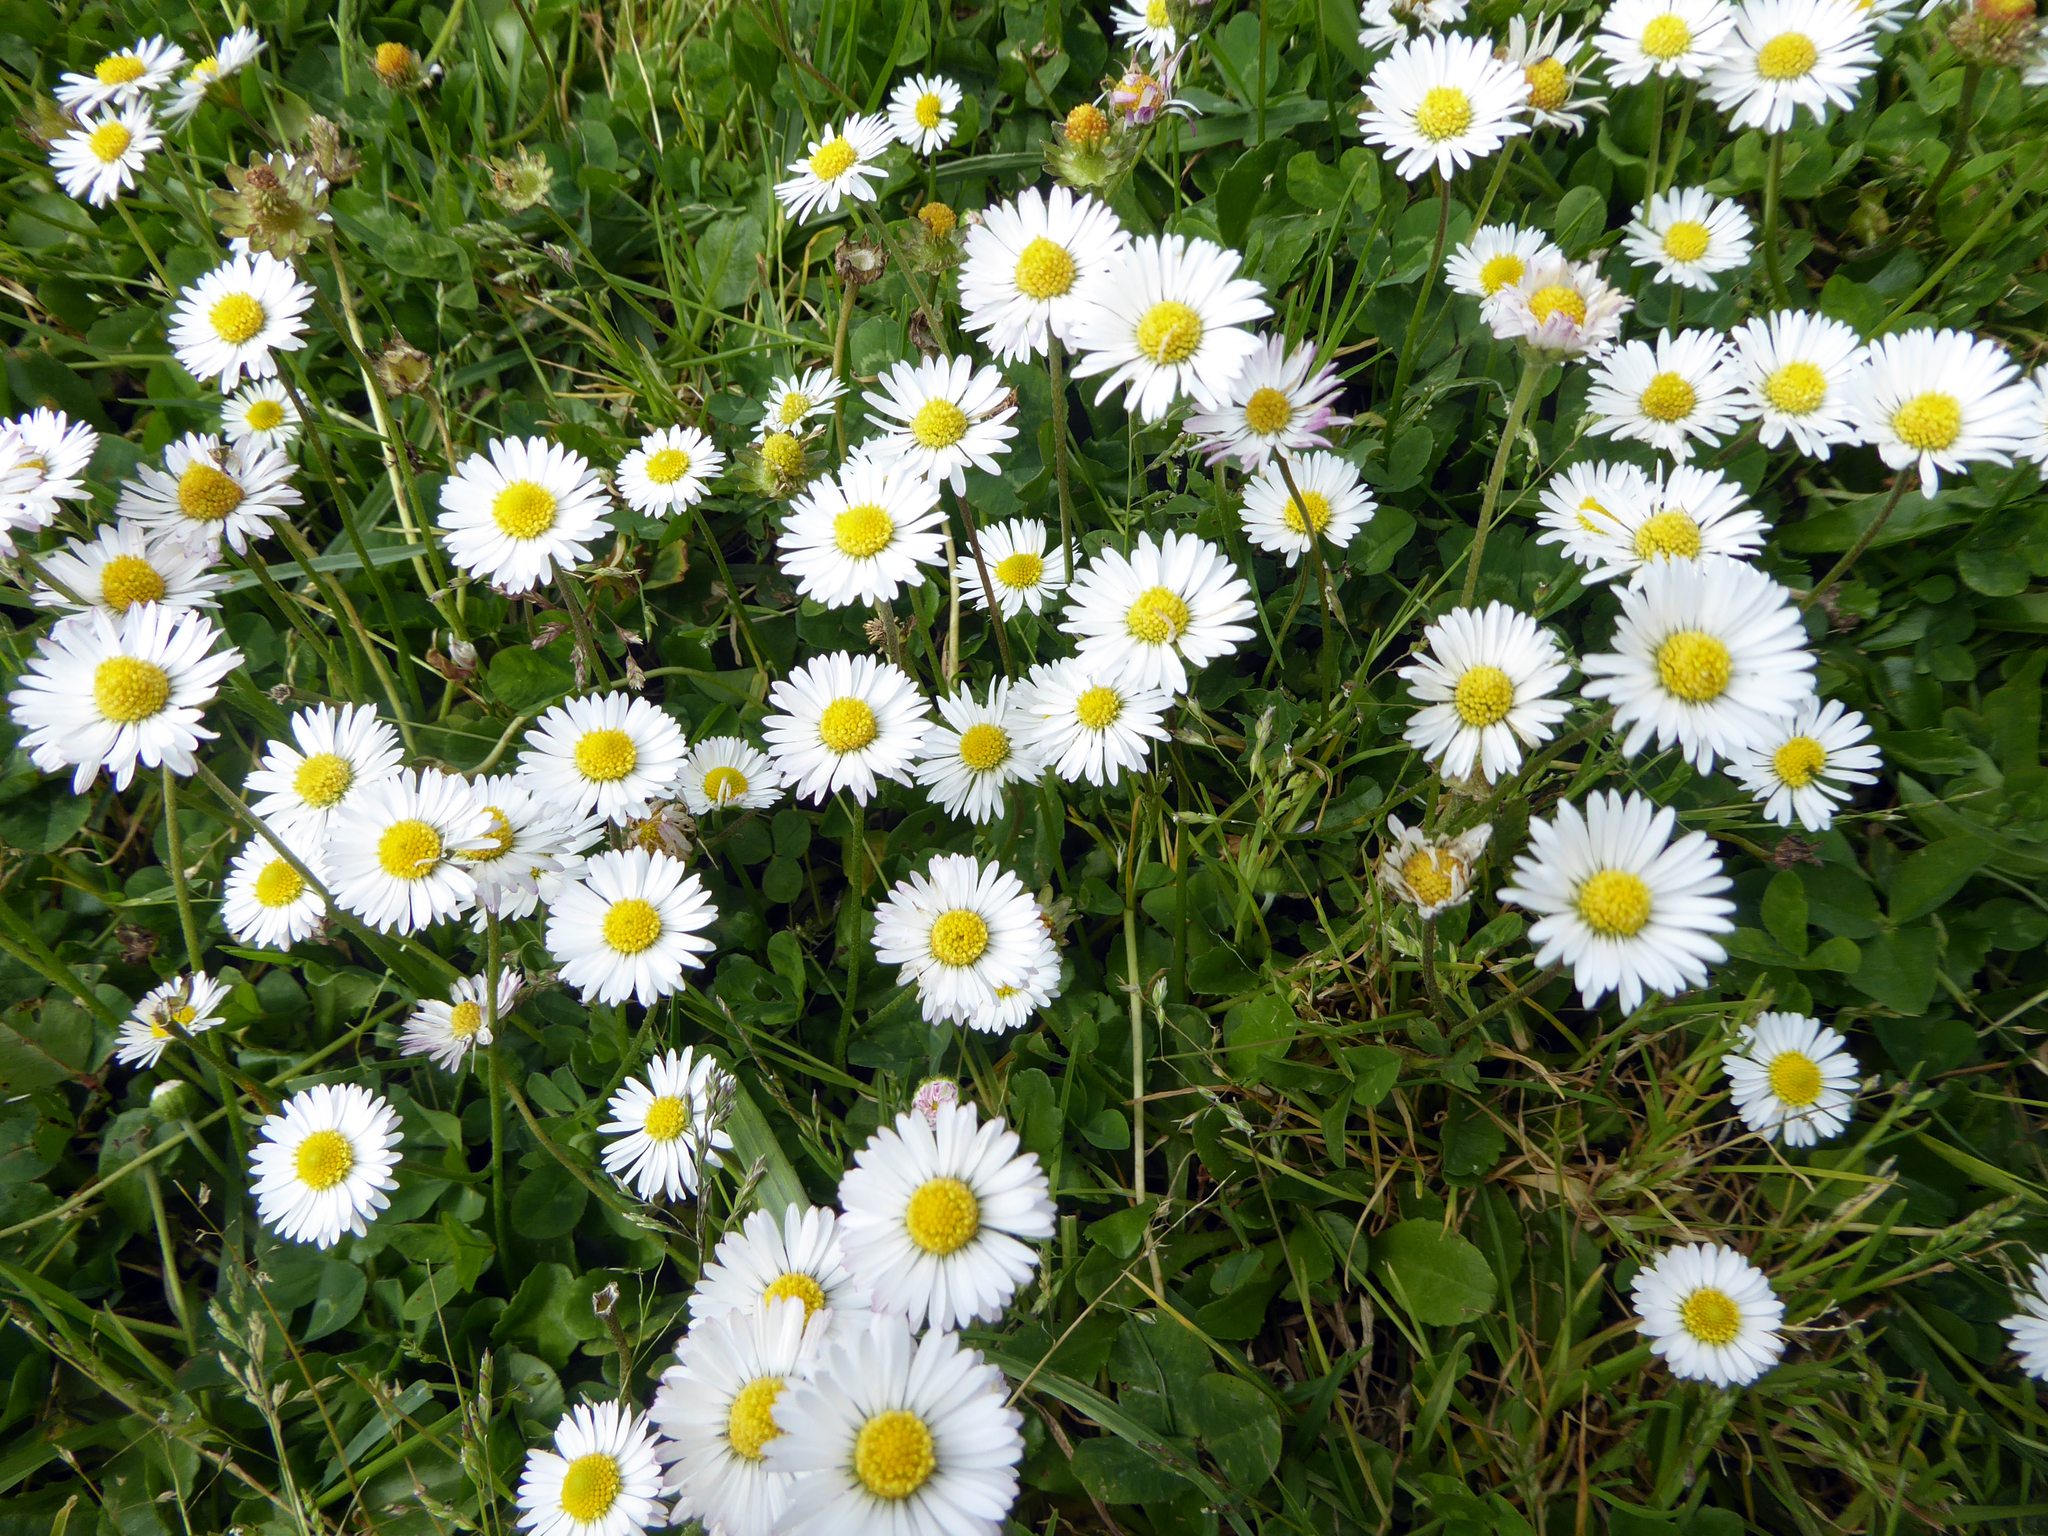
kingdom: Plantae
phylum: Tracheophyta
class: Magnoliopsida
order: Asterales
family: Asteraceae
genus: Bellis
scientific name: Bellis perennis
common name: Lawndaisy
